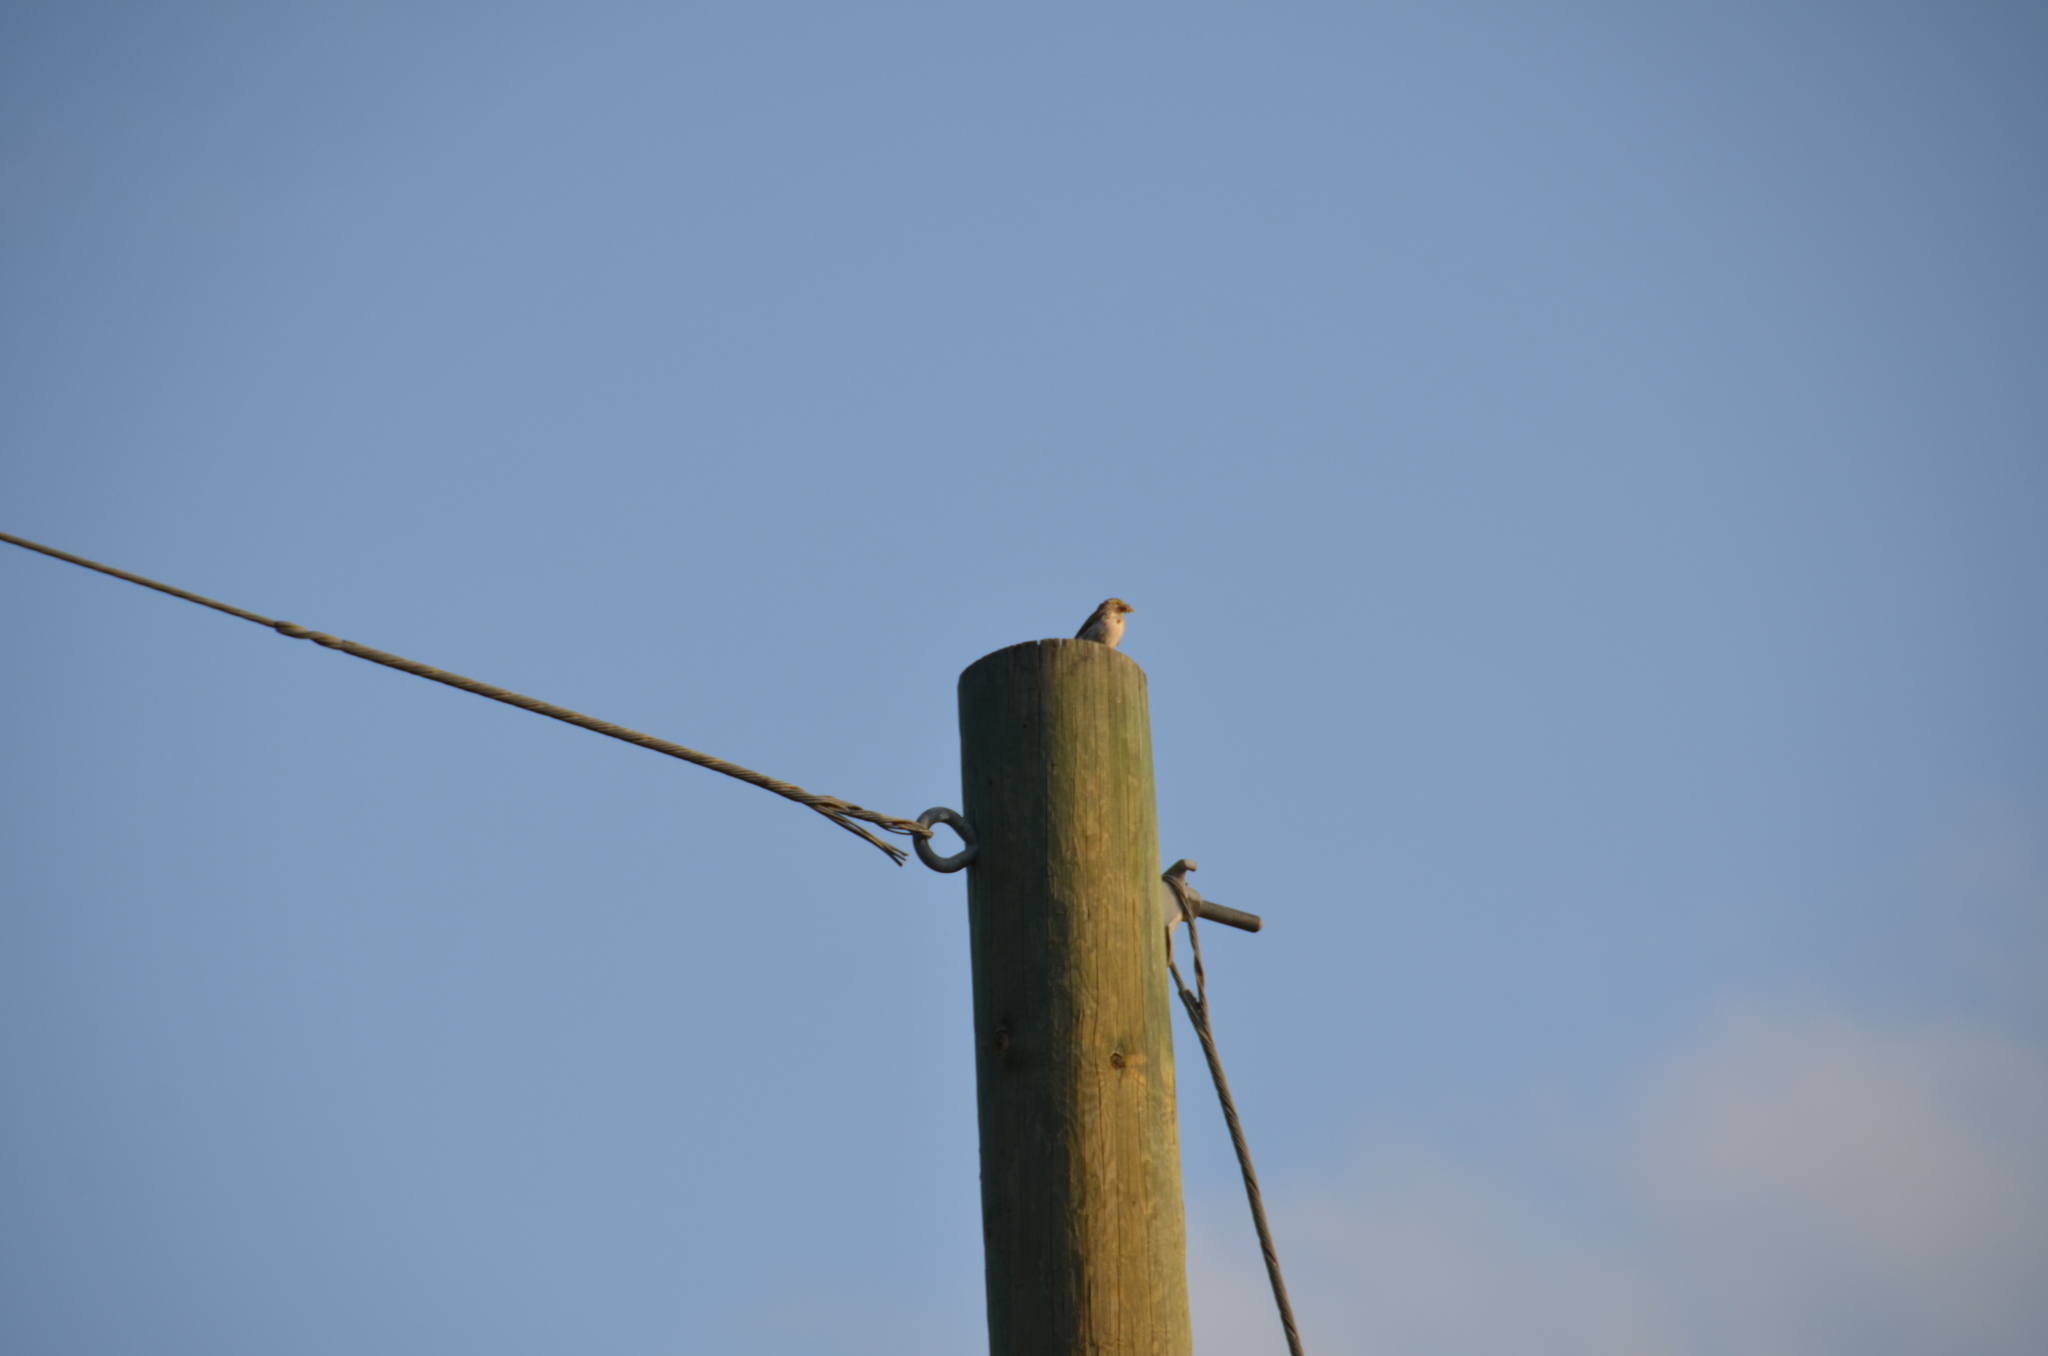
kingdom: Animalia
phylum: Chordata
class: Aves
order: Passeriformes
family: Passerellidae
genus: Passerculus
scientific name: Passerculus sandwichensis
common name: Savannah sparrow
